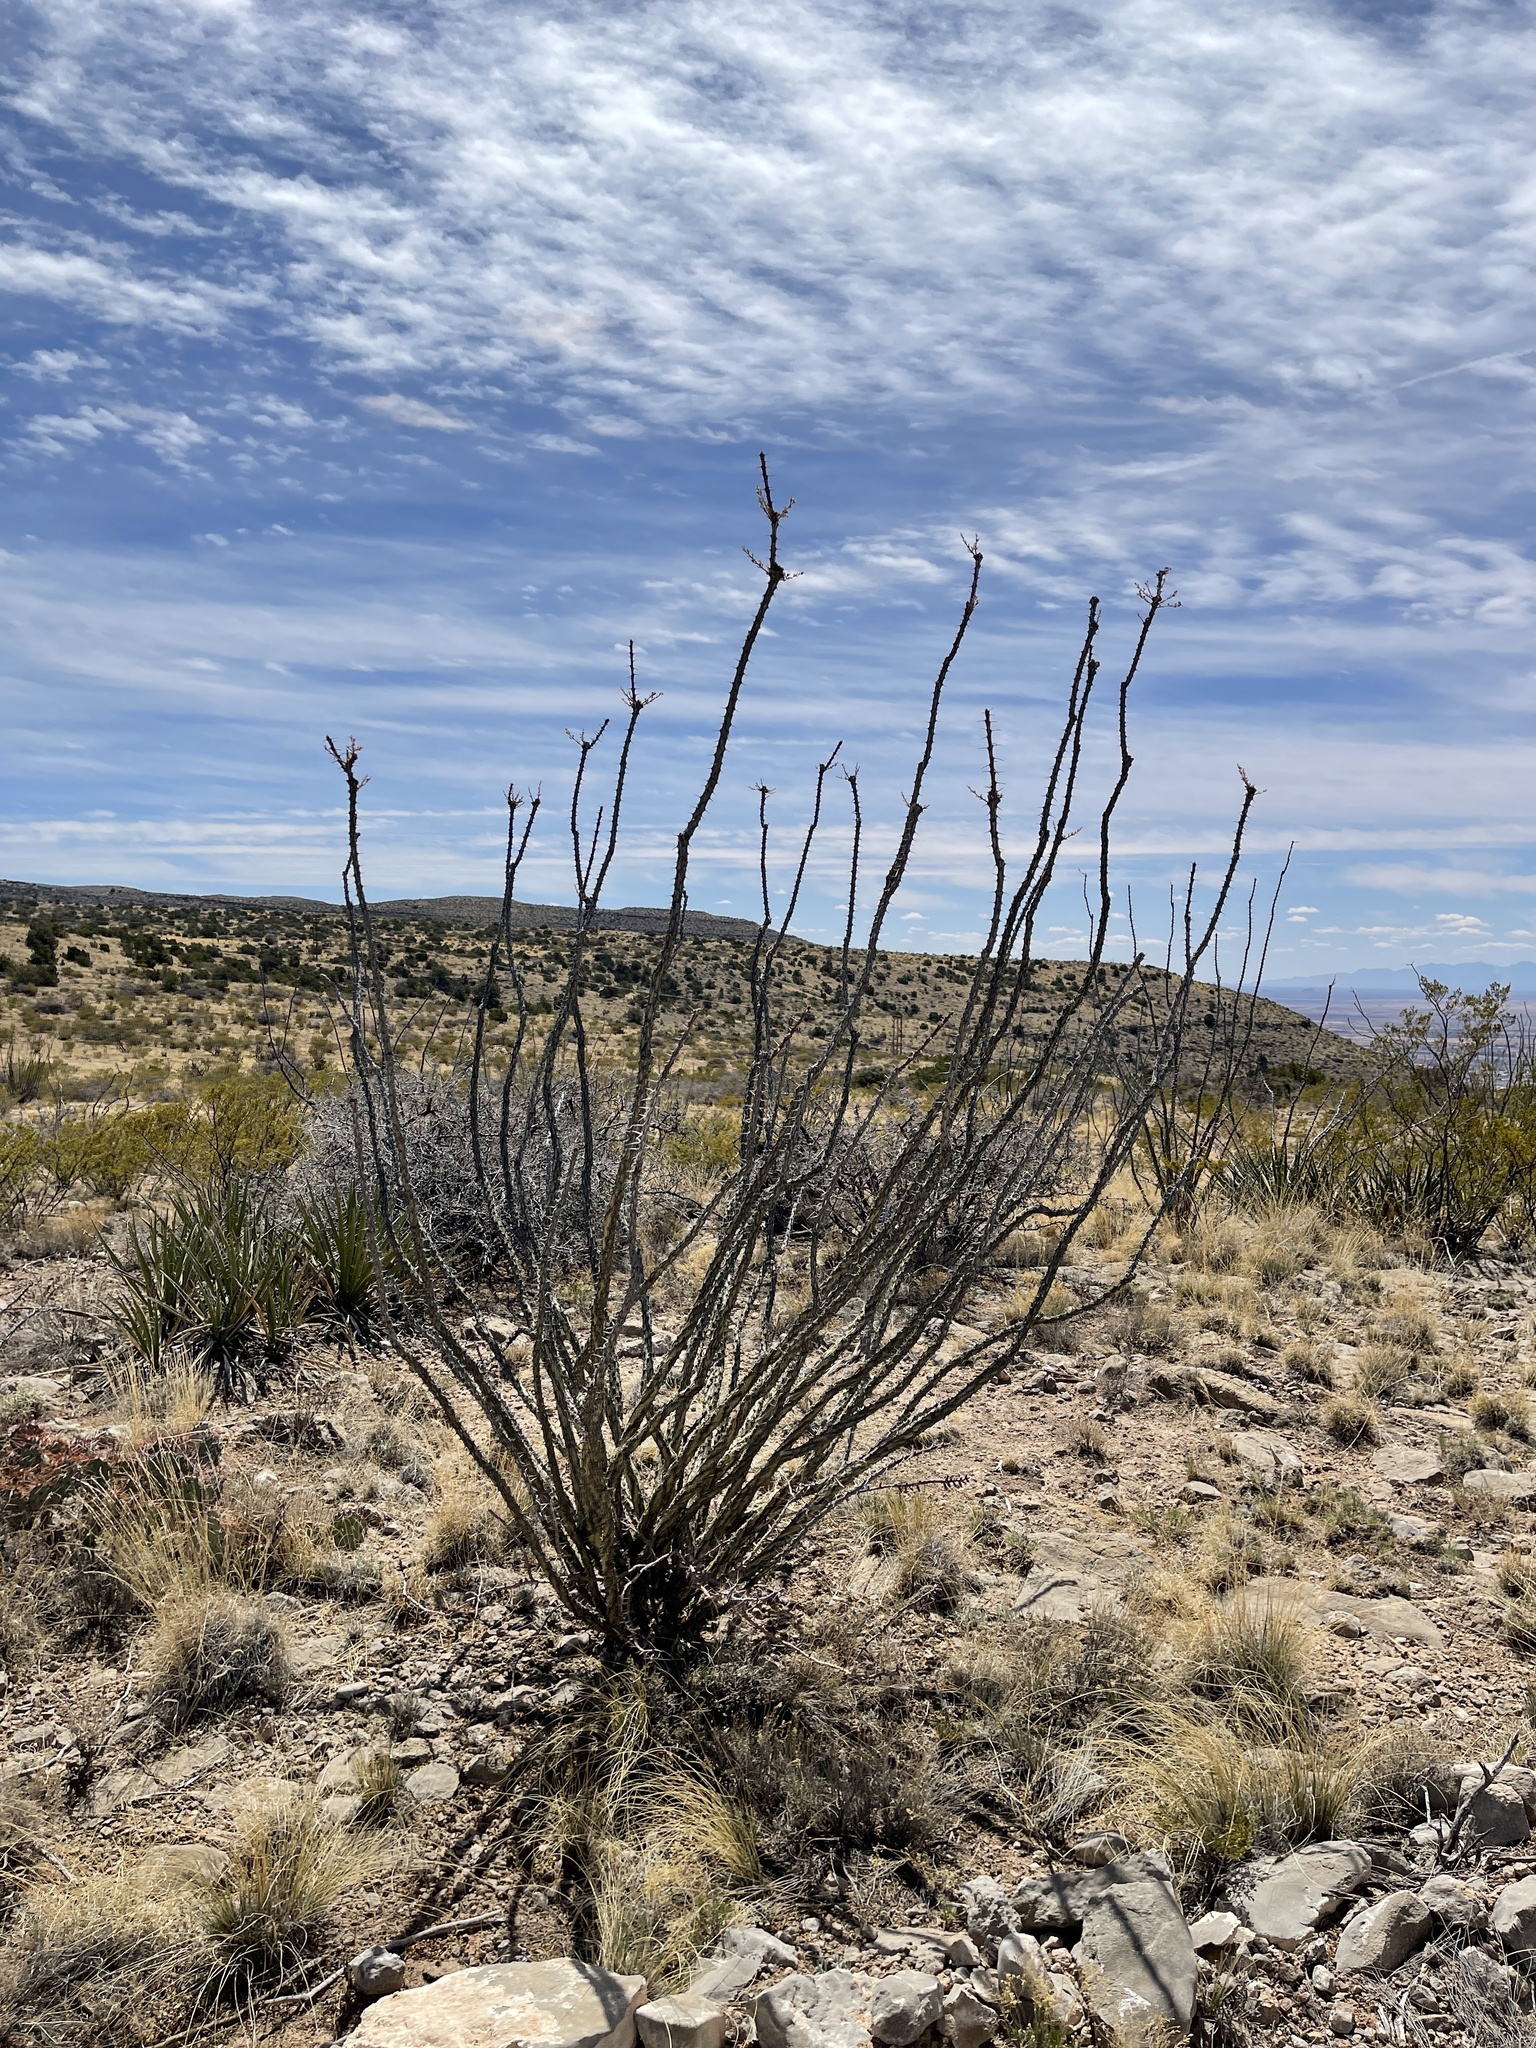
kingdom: Plantae
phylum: Tracheophyta
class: Magnoliopsida
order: Ericales
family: Fouquieriaceae
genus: Fouquieria
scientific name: Fouquieria splendens
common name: Vine-cactus
